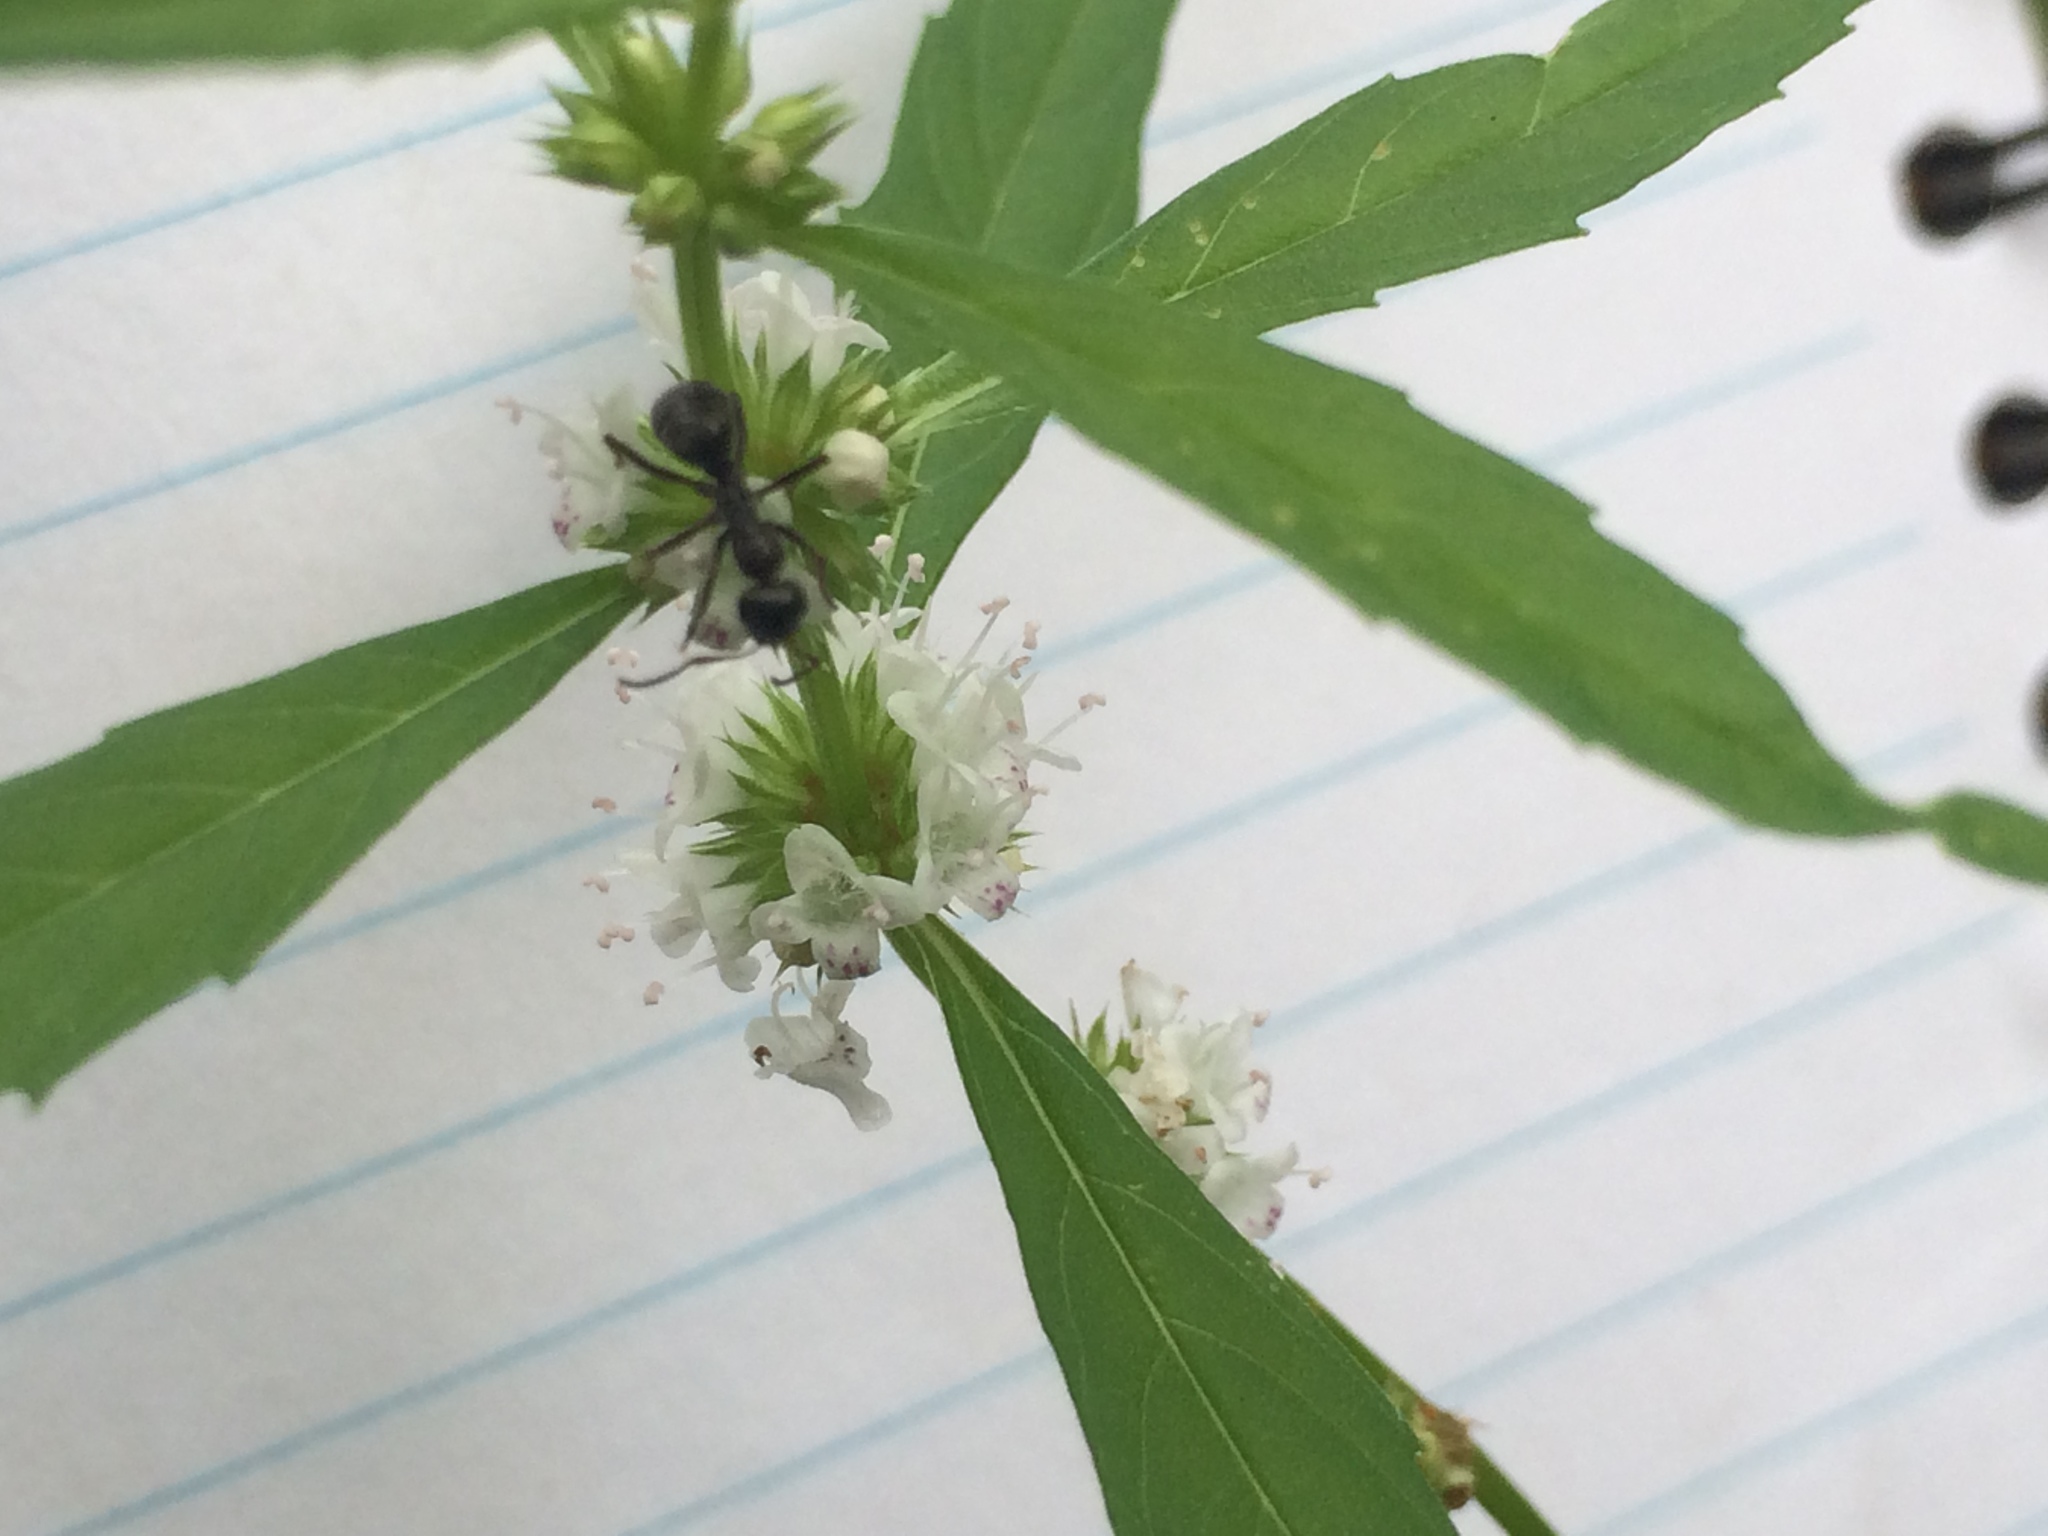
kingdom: Plantae
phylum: Tracheophyta
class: Magnoliopsida
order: Lamiales
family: Lamiaceae
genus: Lycopus
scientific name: Lycopus americanus
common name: American bugleweed
